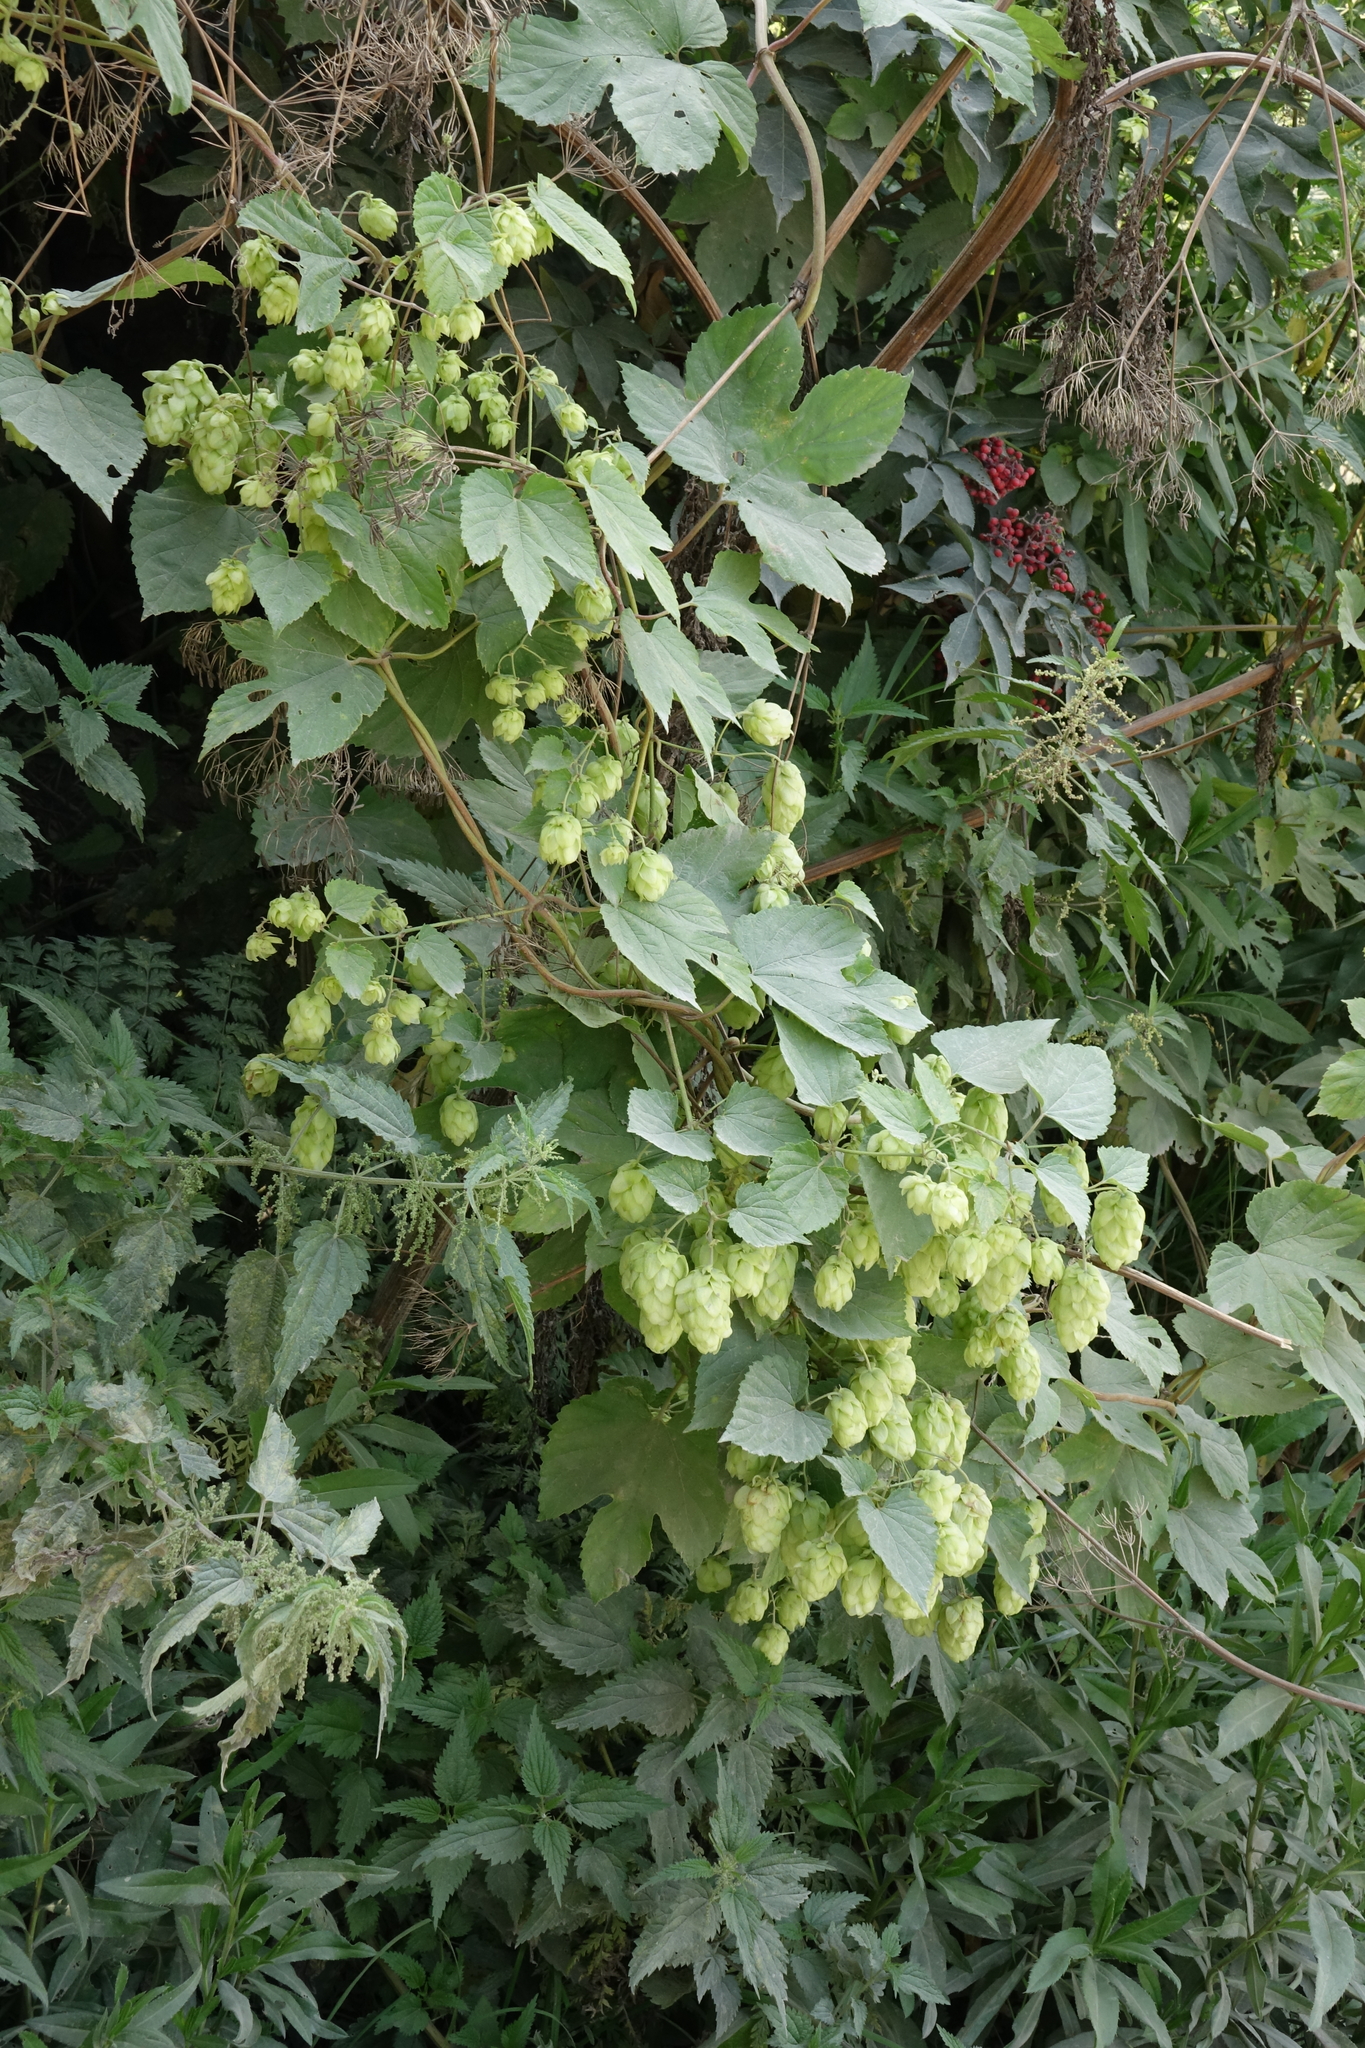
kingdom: Plantae
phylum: Tracheophyta
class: Magnoliopsida
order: Rosales
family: Cannabaceae
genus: Humulus
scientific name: Humulus lupulus
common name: Hop
